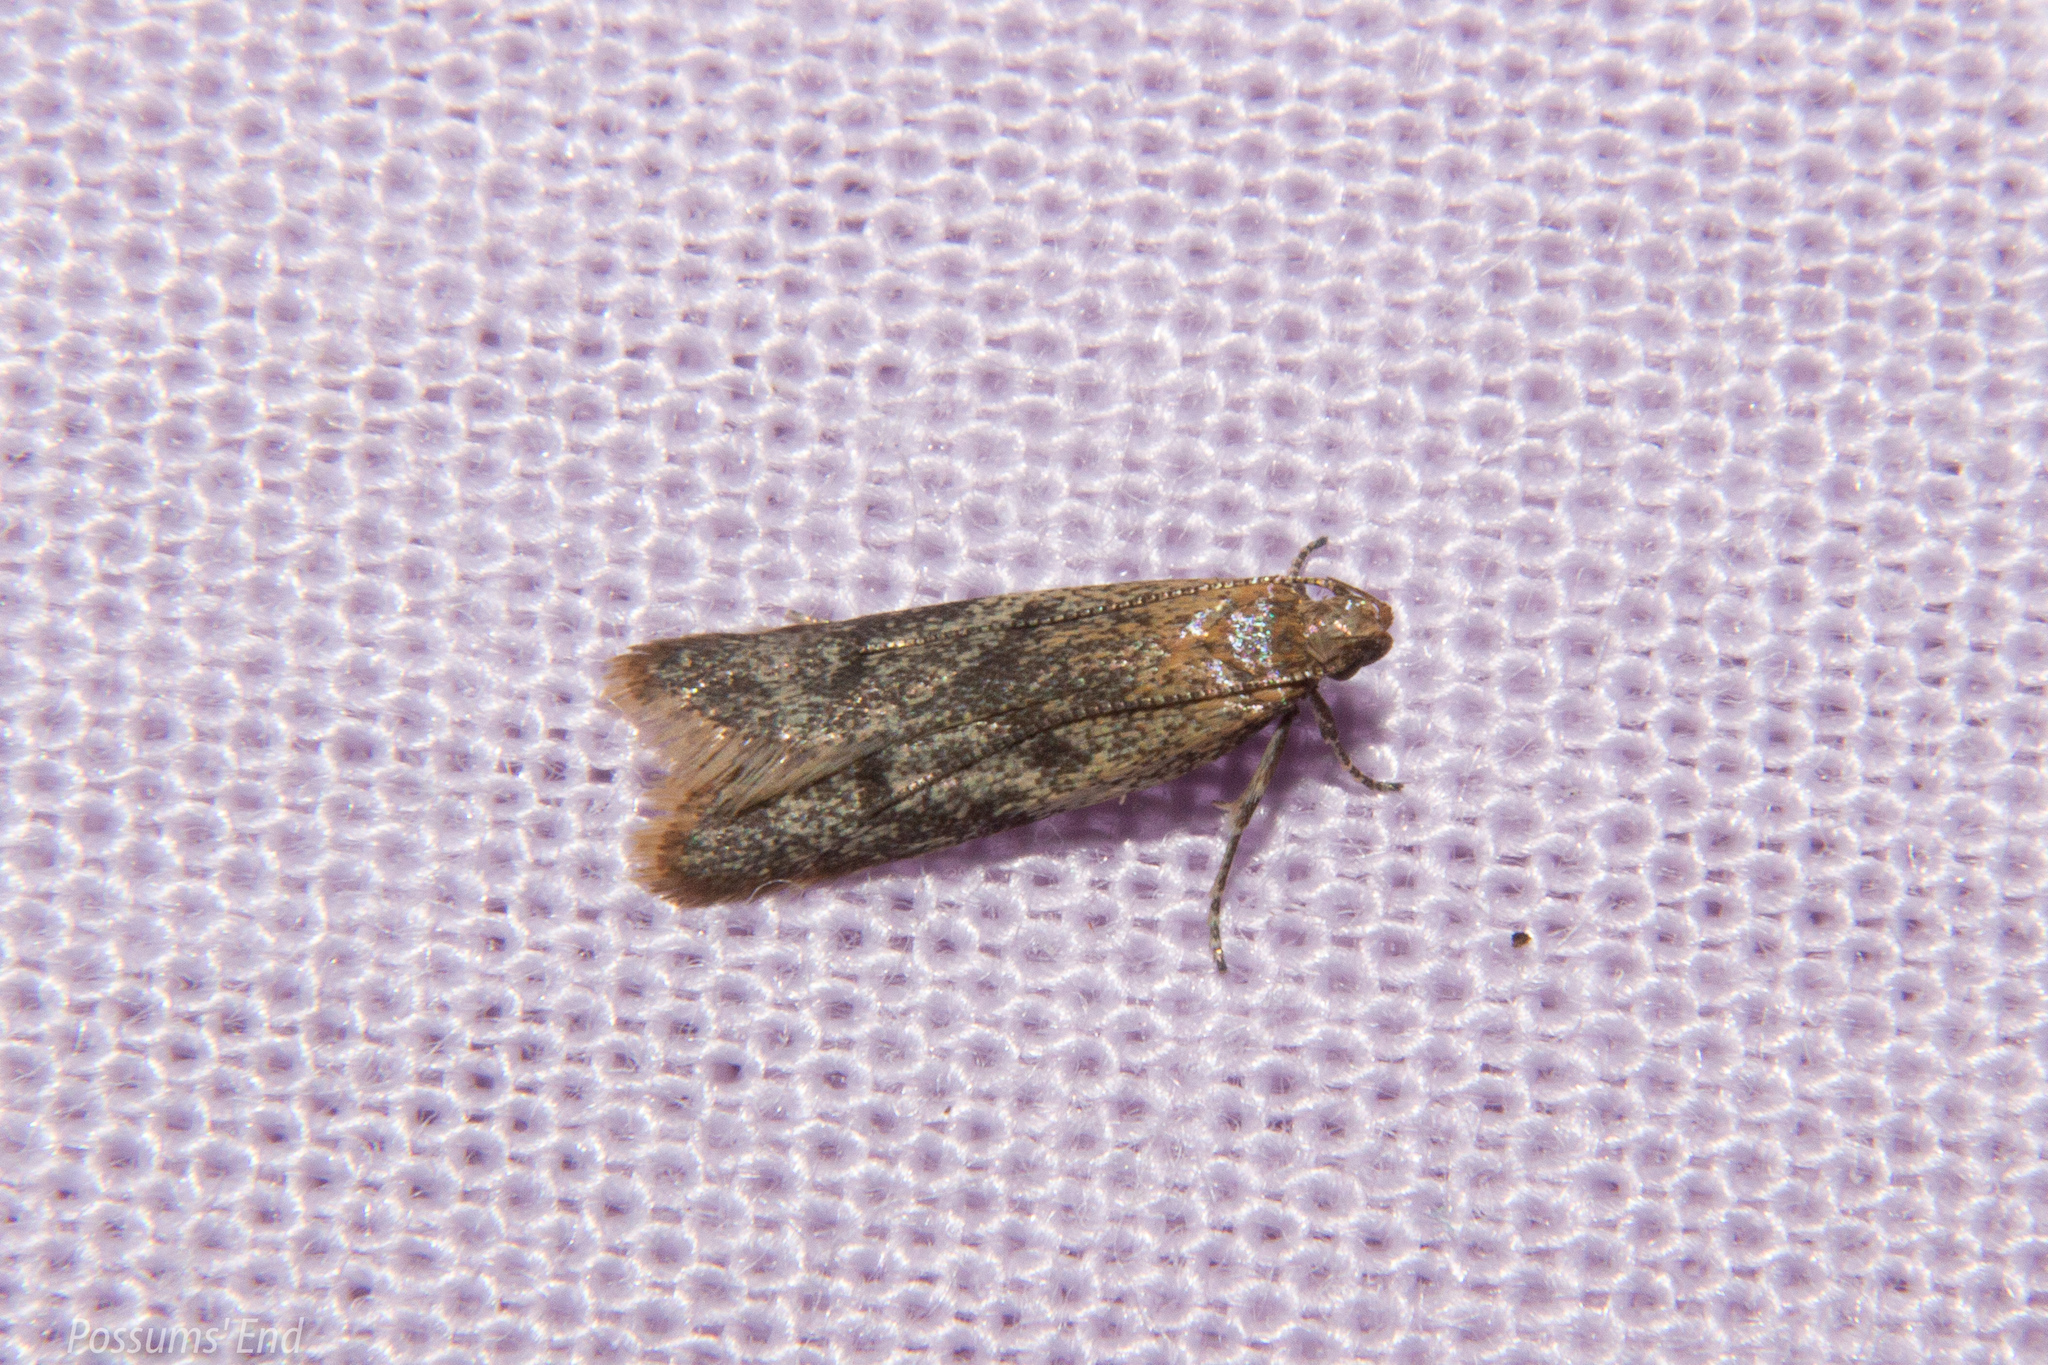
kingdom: Animalia
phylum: Arthropoda
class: Insecta
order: Lepidoptera
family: Oecophoridae
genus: Gymnobathra
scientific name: Gymnobathra tholodella
